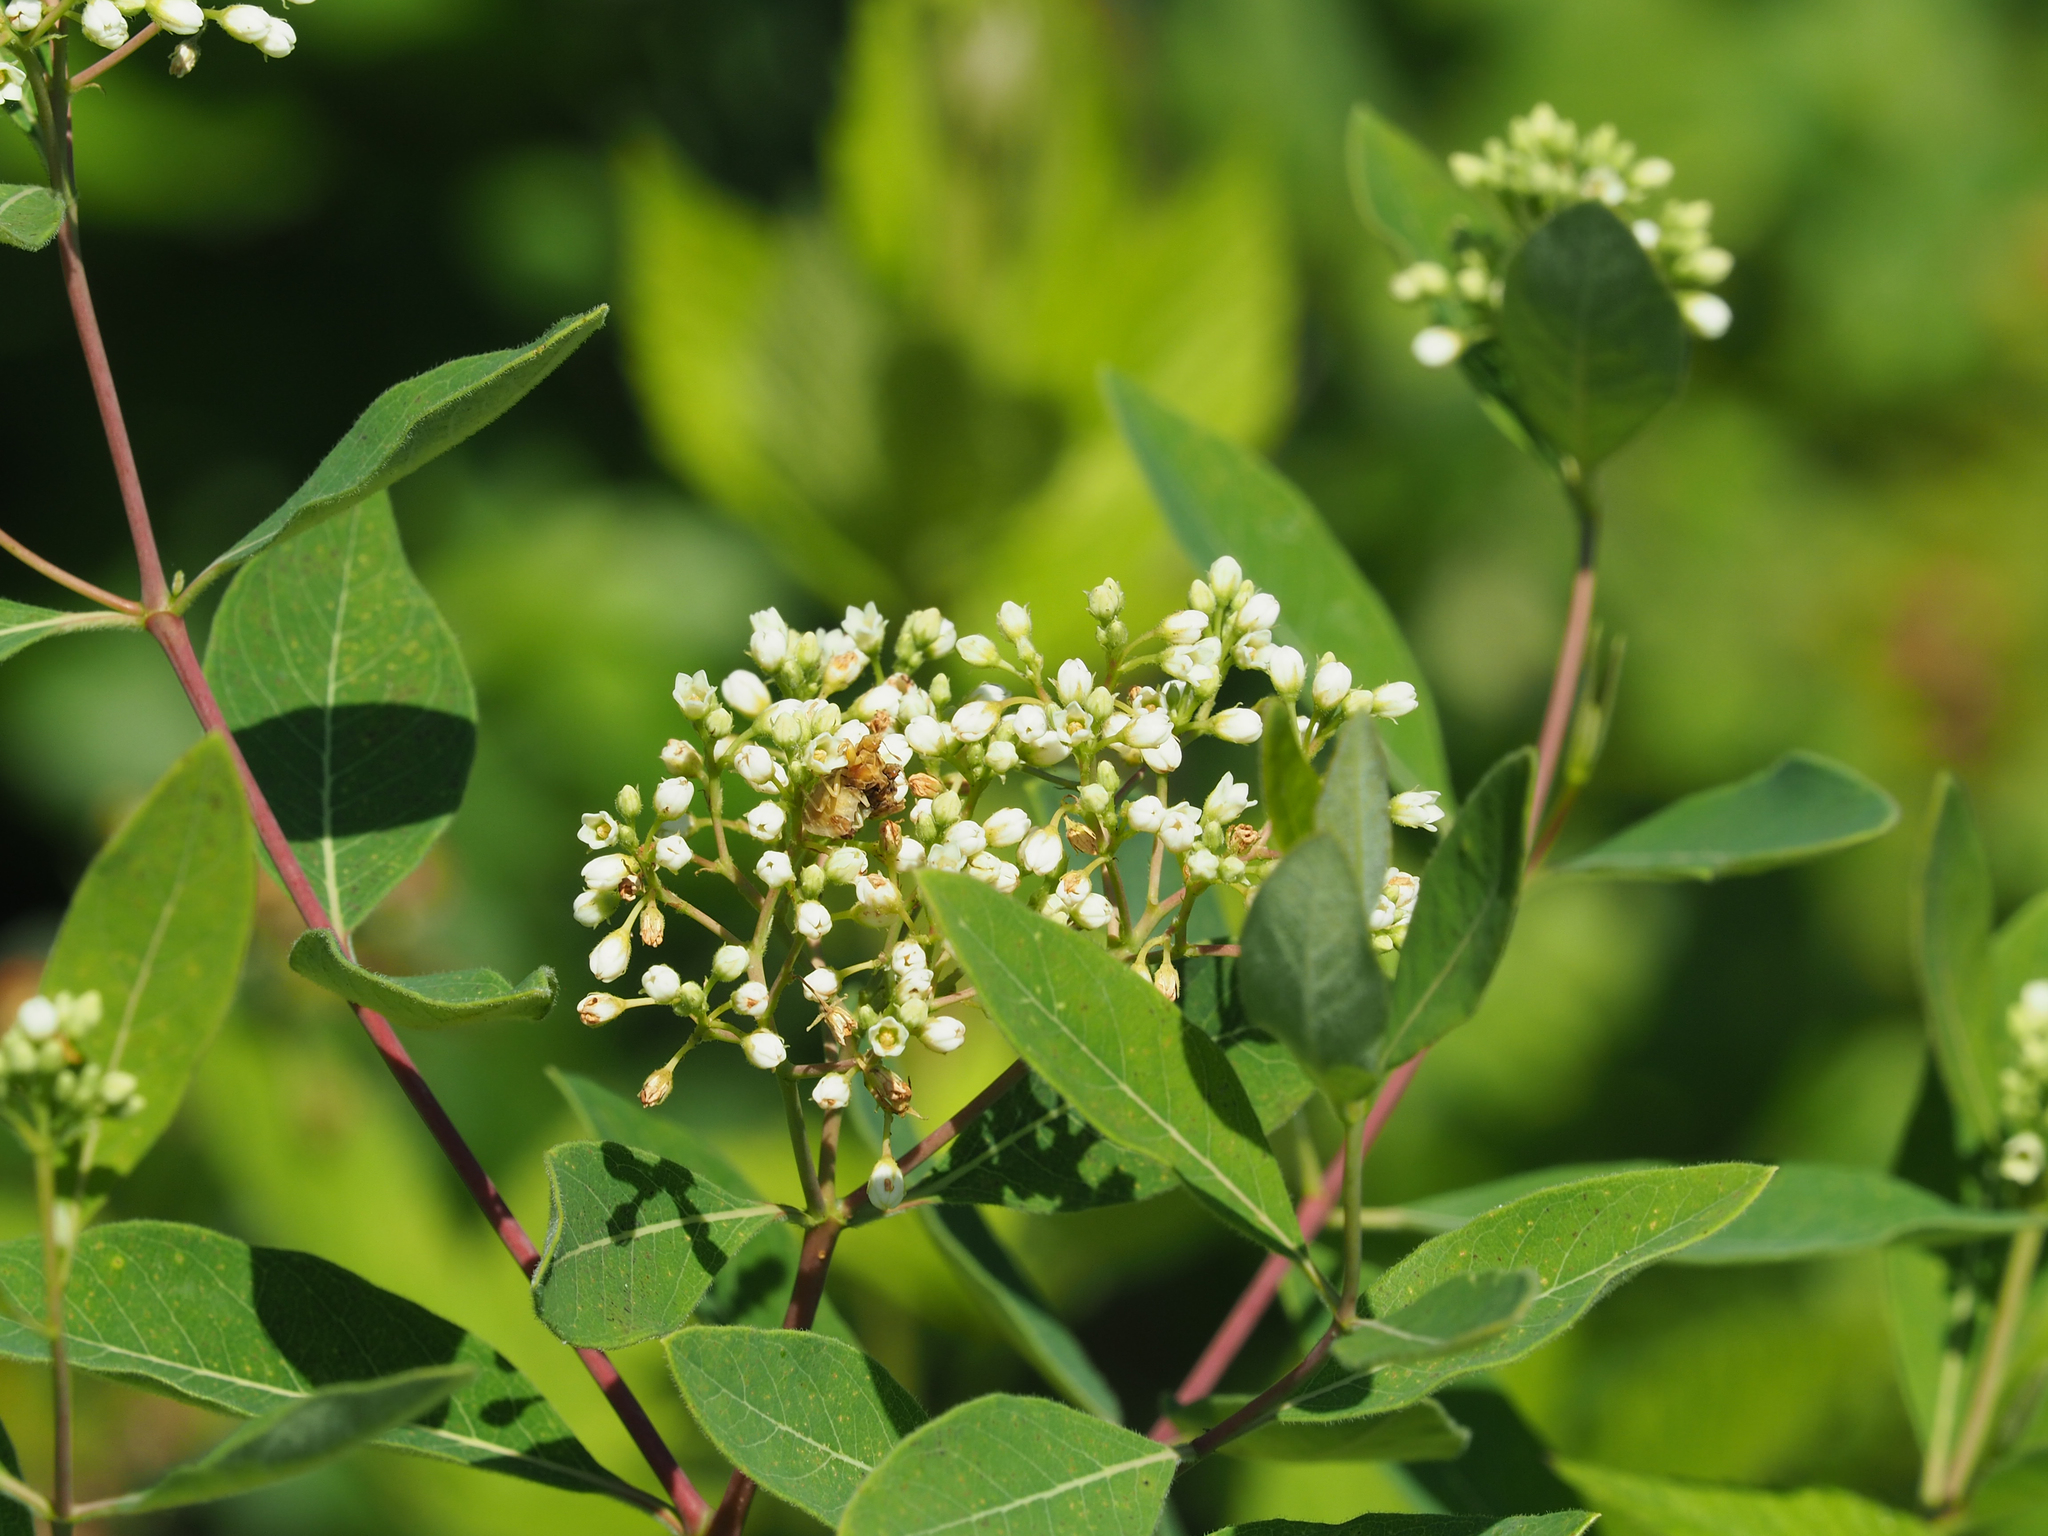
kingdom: Plantae
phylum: Tracheophyta
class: Magnoliopsida
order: Gentianales
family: Apocynaceae
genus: Apocynum
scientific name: Apocynum cannabinum
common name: Hemp dogbane
